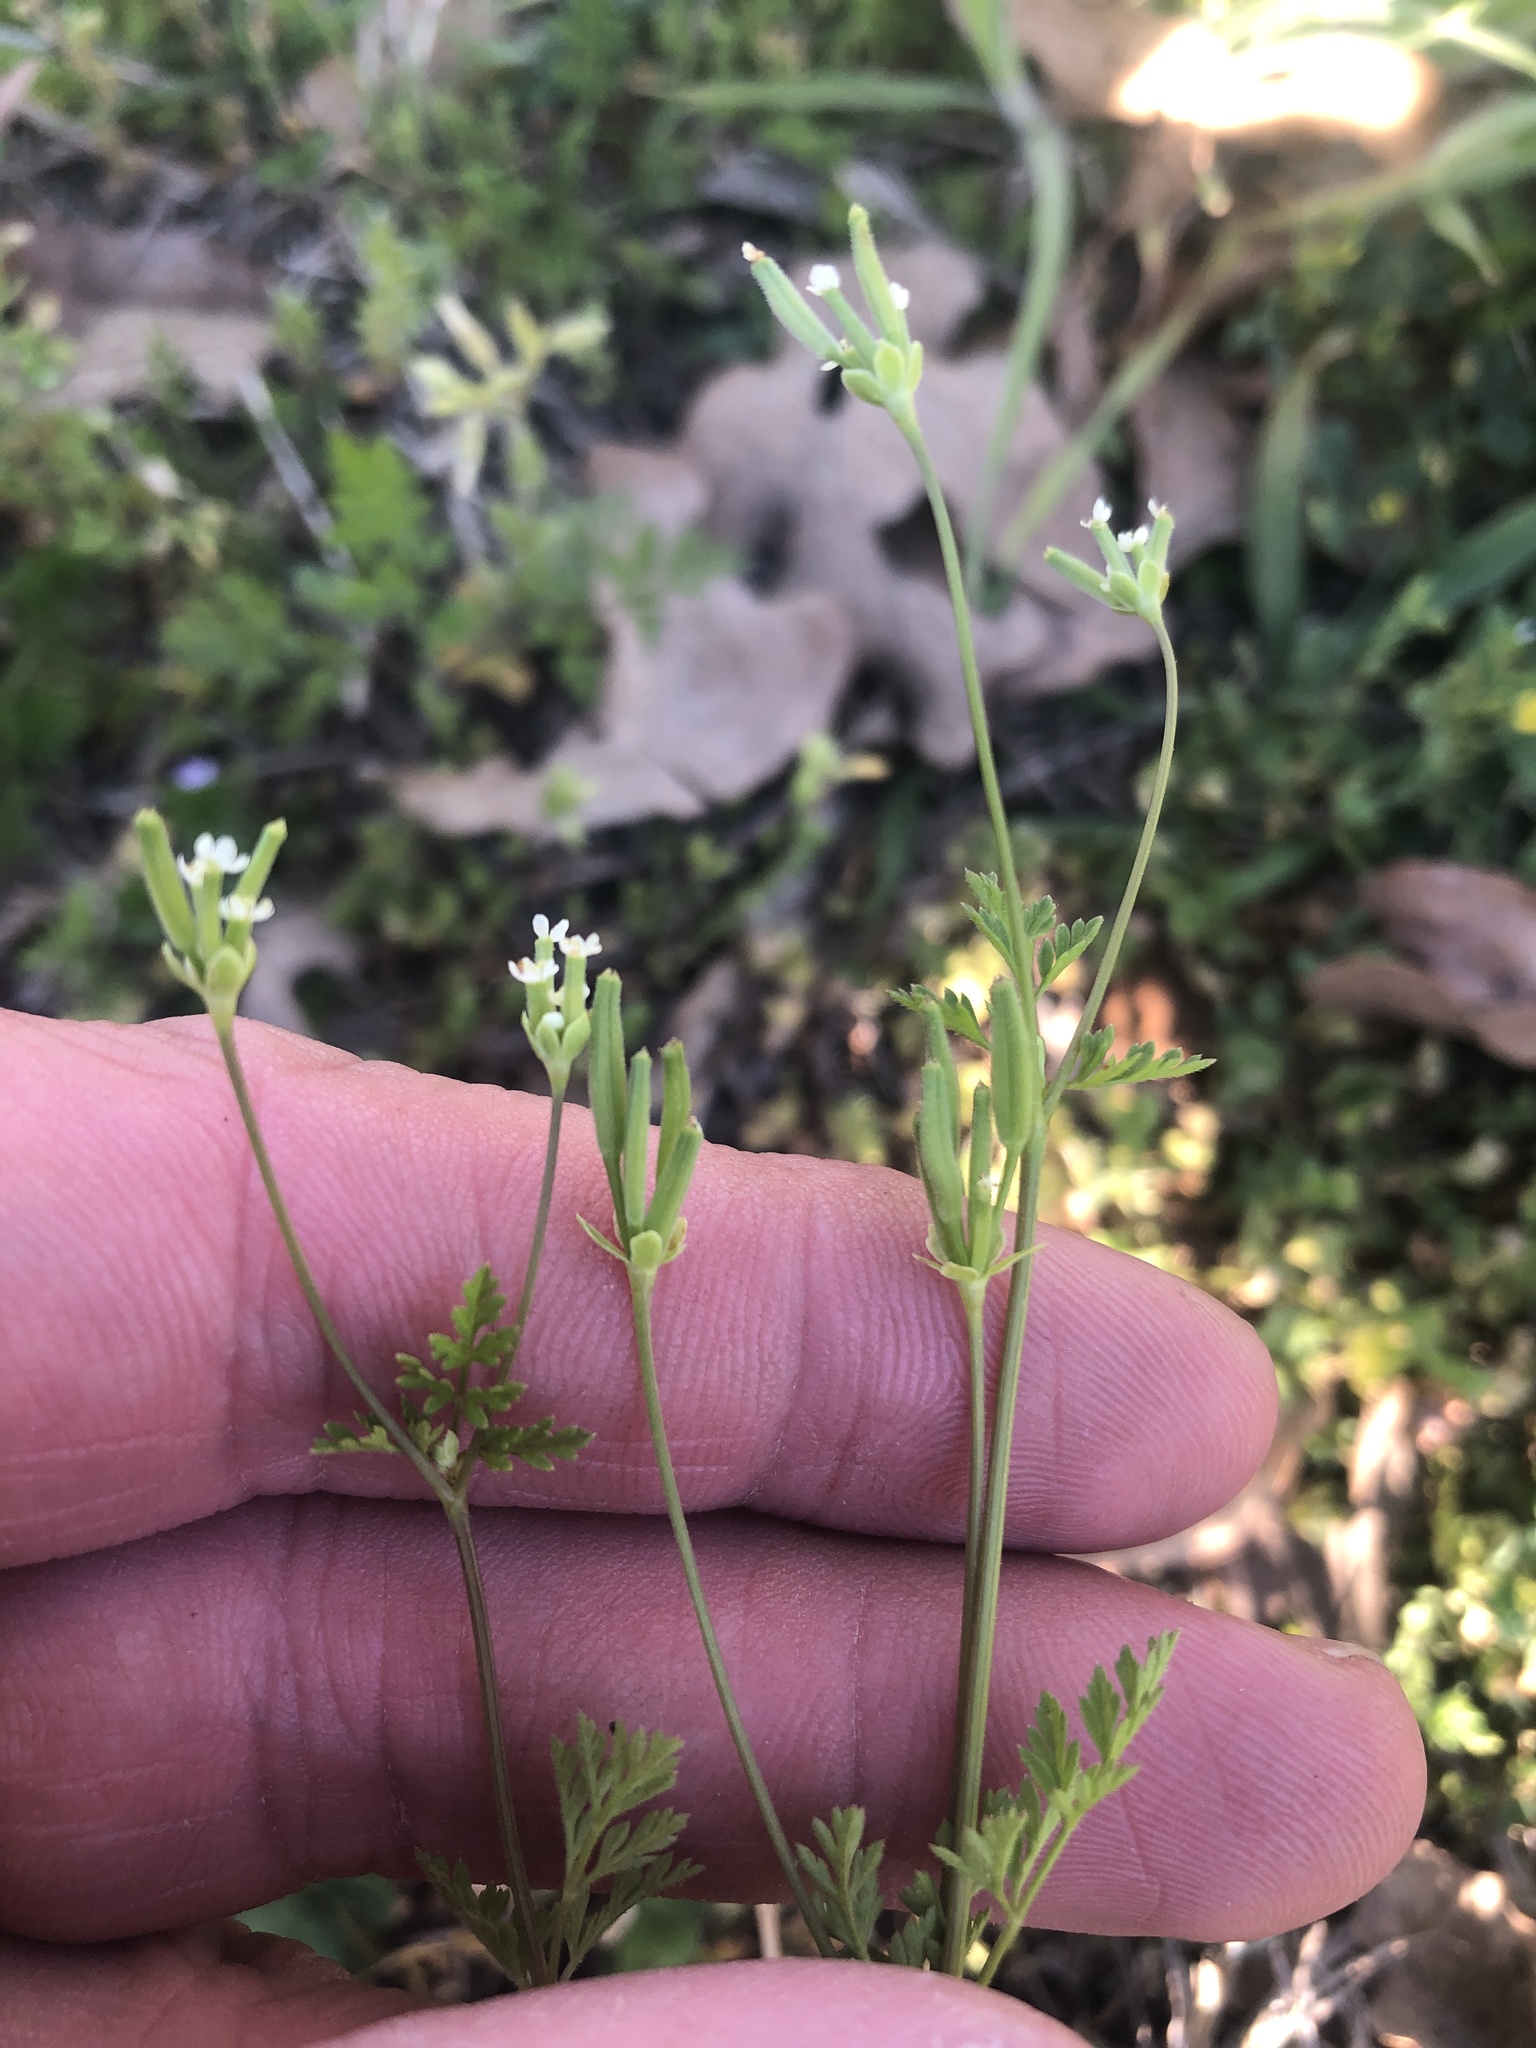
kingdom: Plantae
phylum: Tracheophyta
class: Magnoliopsida
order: Apiales
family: Apiaceae
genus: Chaerophyllum
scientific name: Chaerophyllum tainturieri
